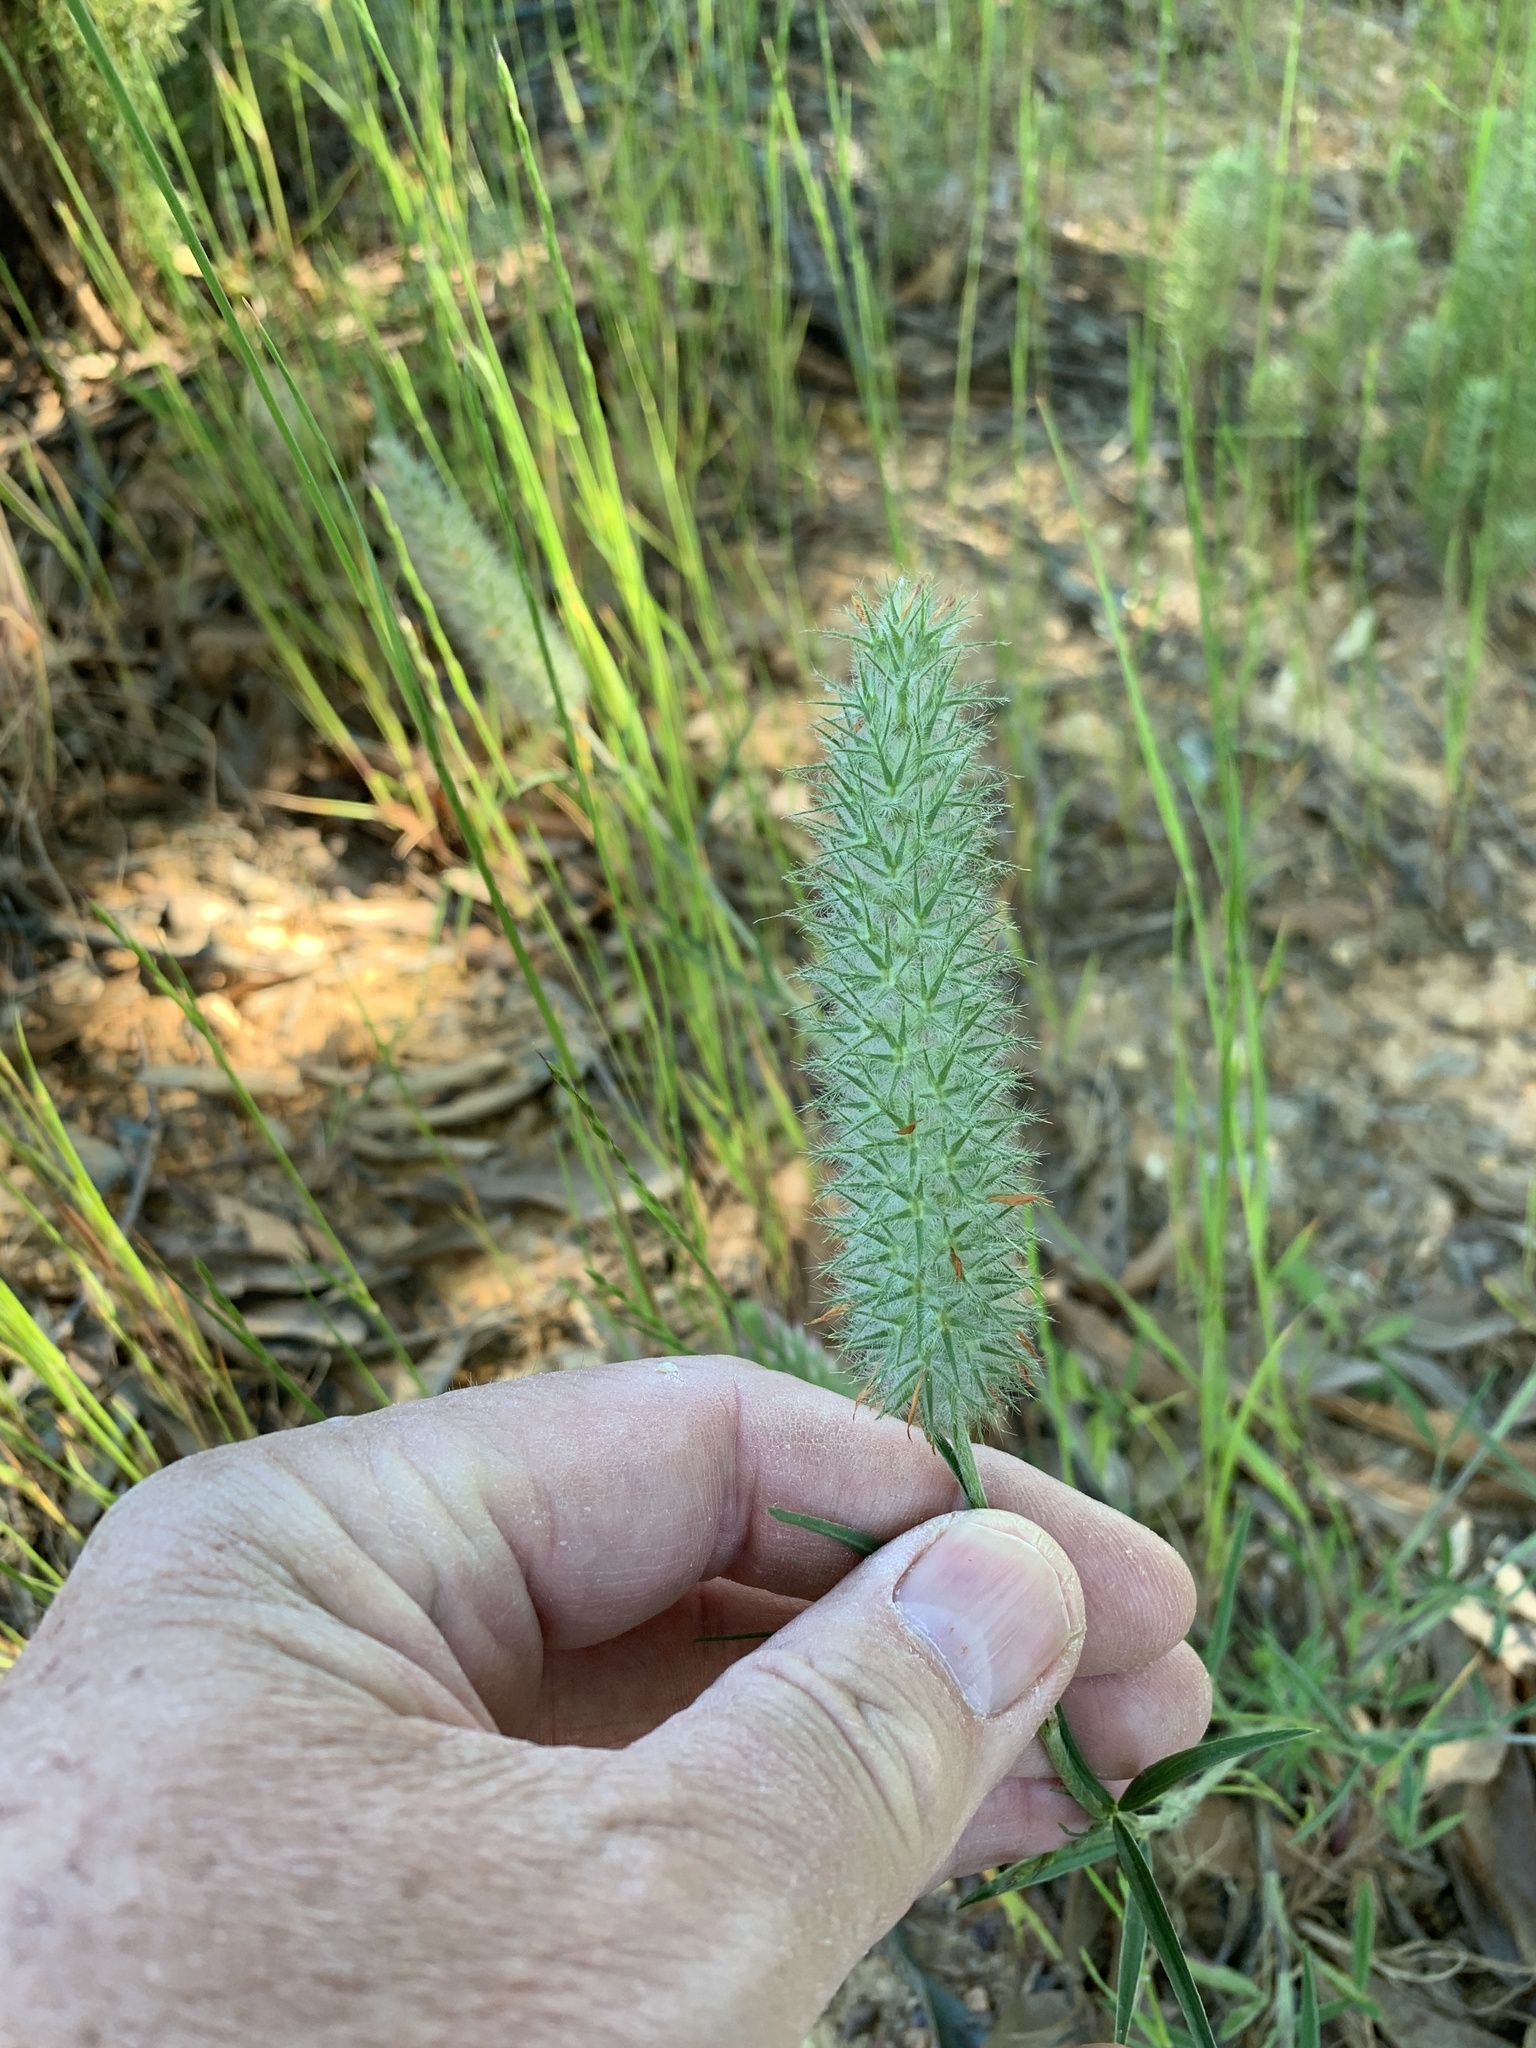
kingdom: Plantae
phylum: Tracheophyta
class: Magnoliopsida
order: Fabales
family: Fabaceae
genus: Trifolium
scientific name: Trifolium angustifolium
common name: Narrow clover
